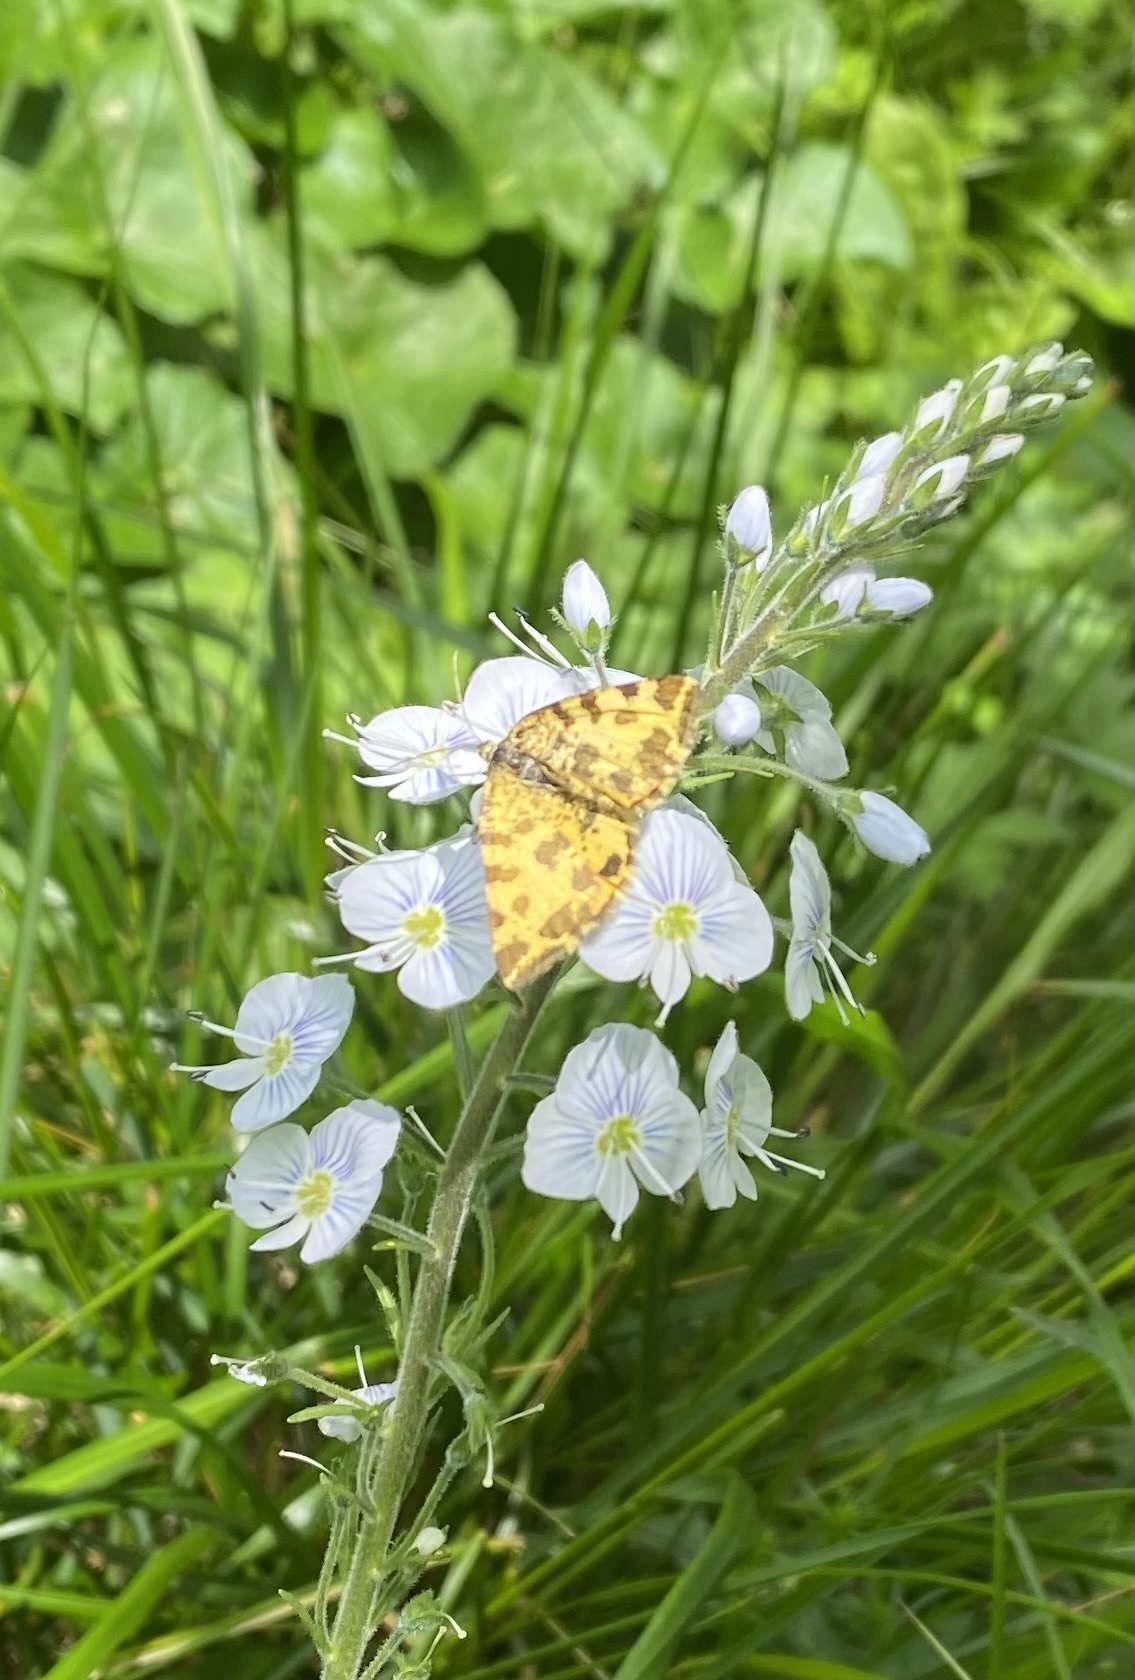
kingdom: Animalia
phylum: Arthropoda
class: Insecta
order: Lepidoptera
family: Geometridae
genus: Pseudopanthera
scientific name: Pseudopanthera macularia
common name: Speckled yellow
